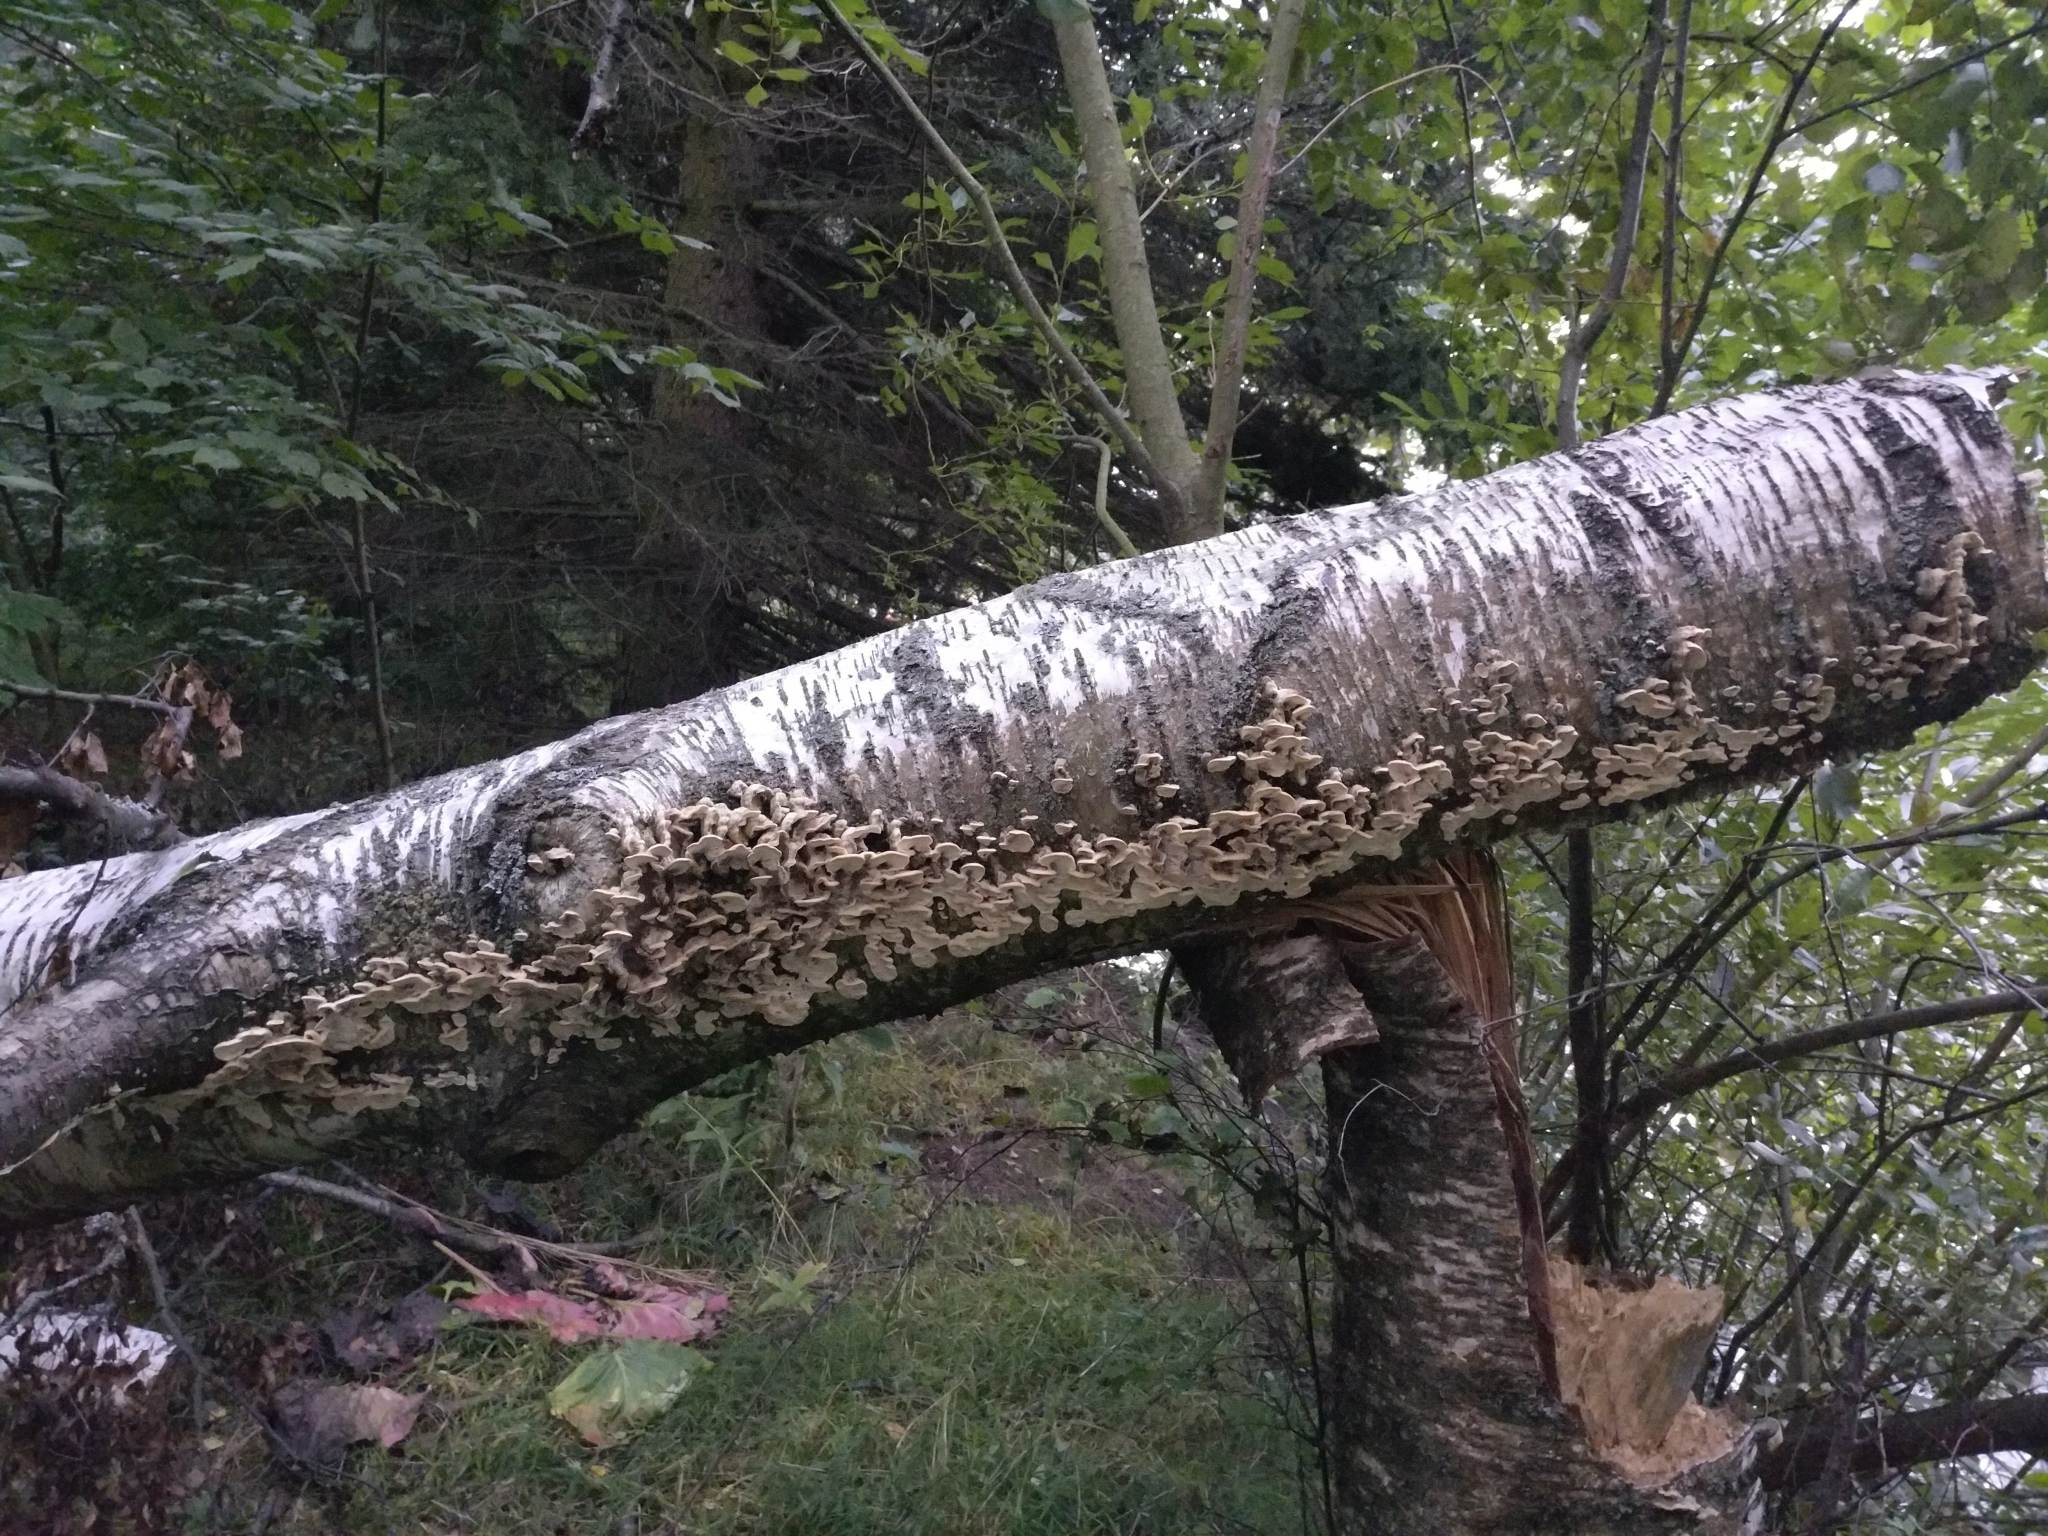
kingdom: Fungi
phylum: Basidiomycota
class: Agaricomycetes
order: Polyporales
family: Cerrenaceae
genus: Cerrena
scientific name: Cerrena unicolor
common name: Mossy maze polypore
